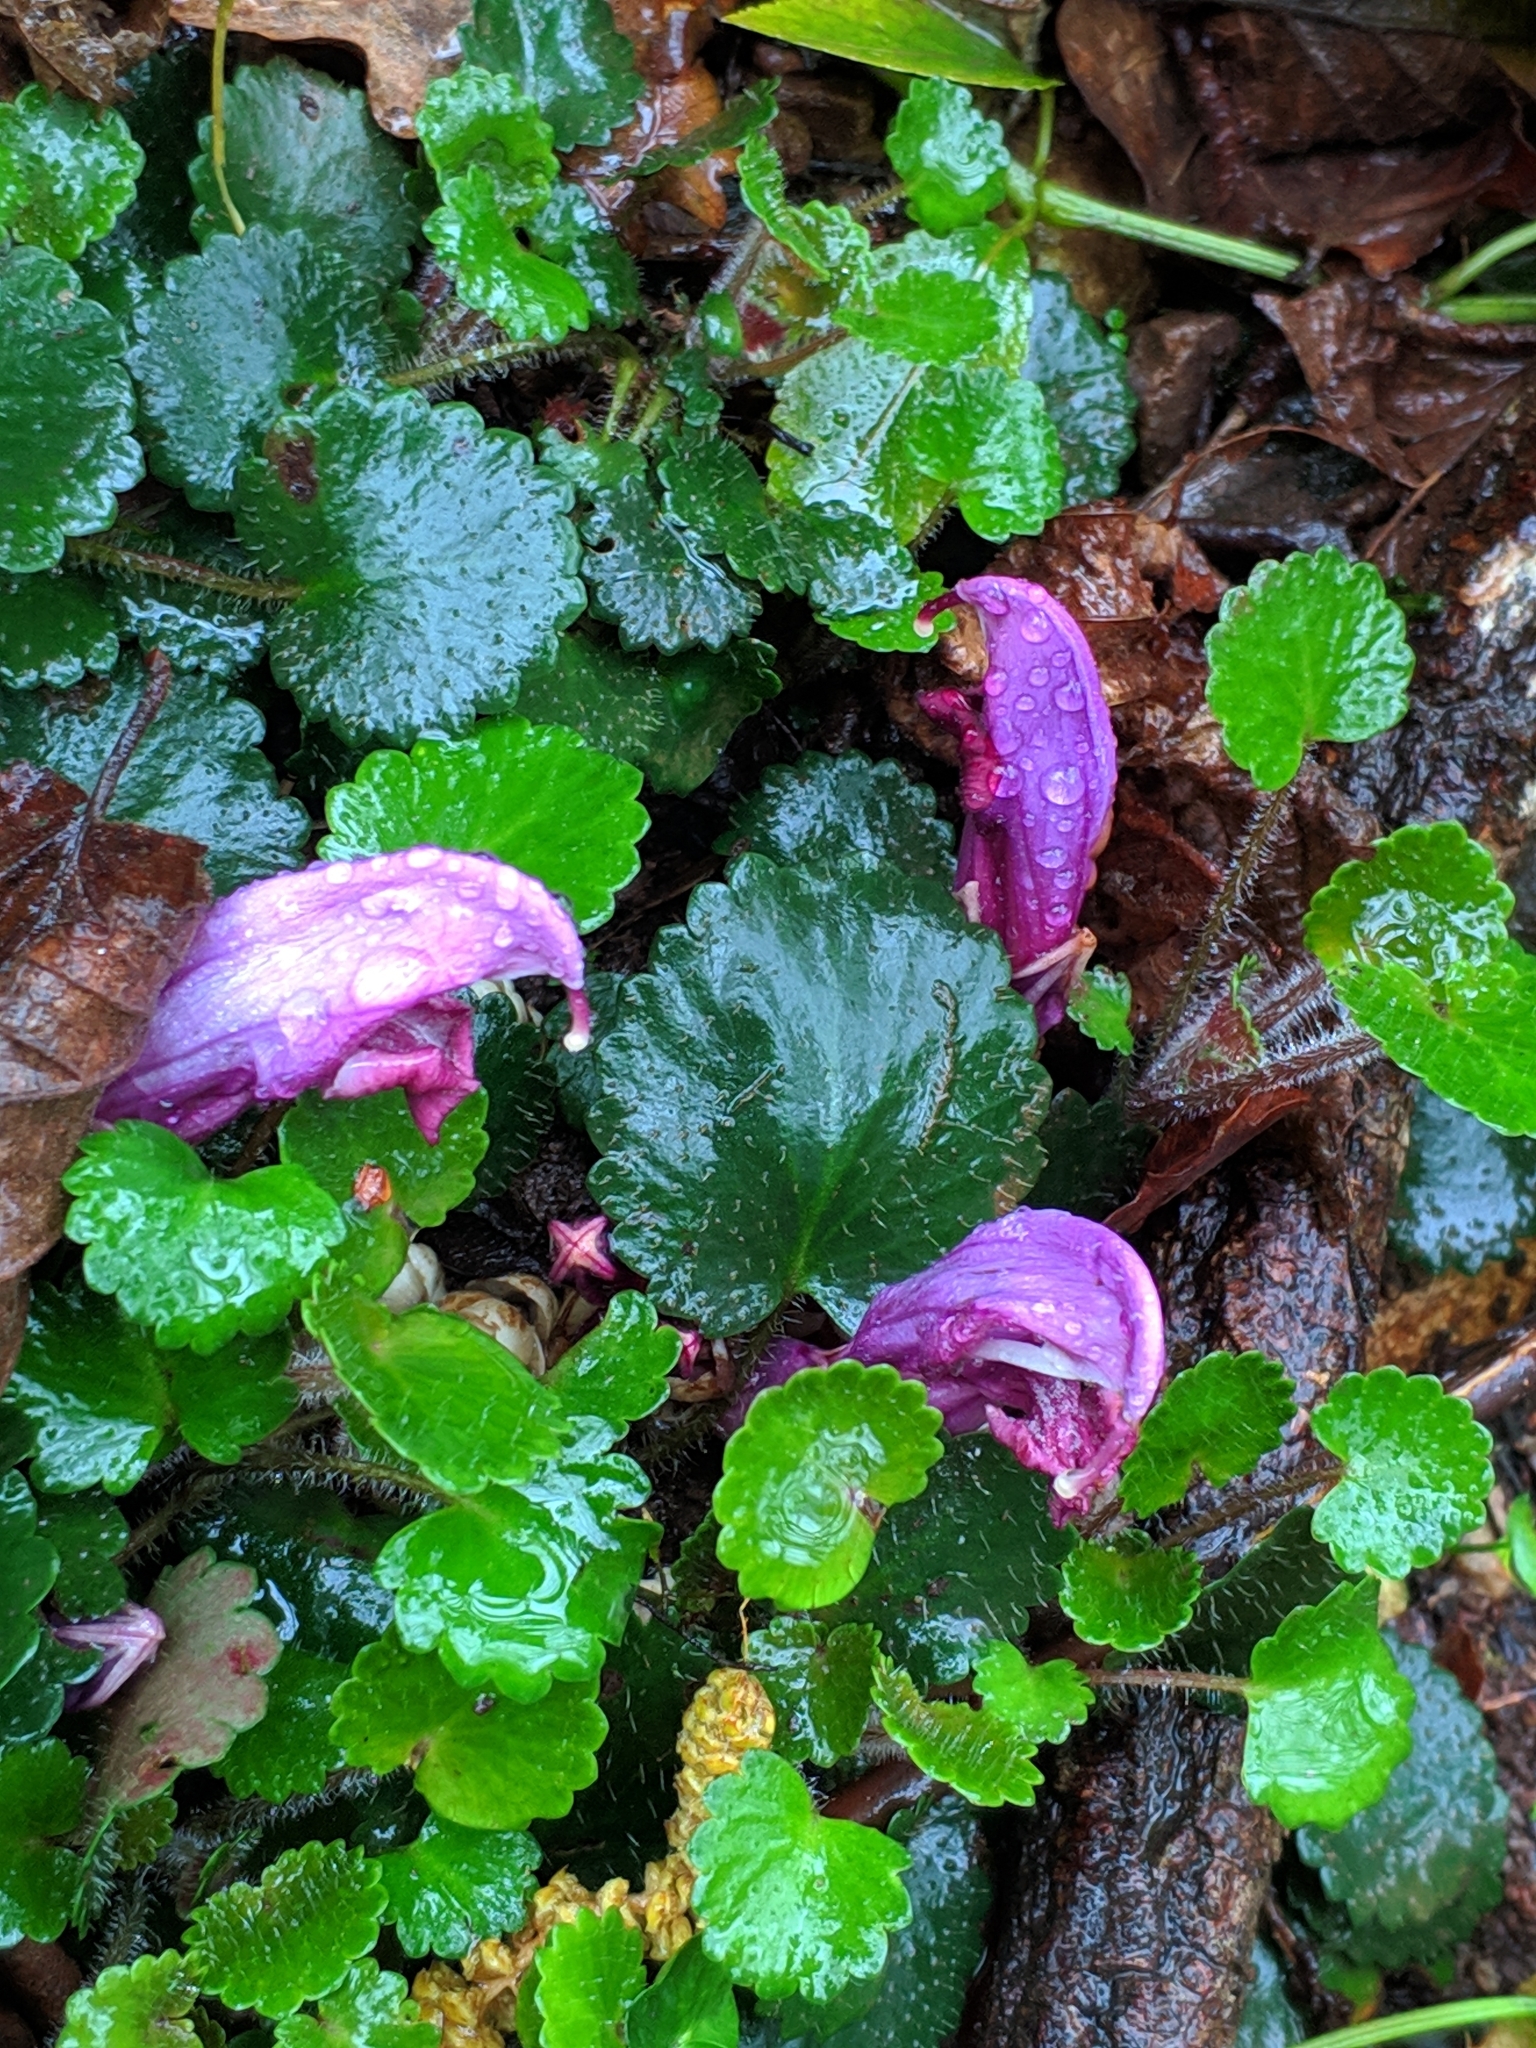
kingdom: Plantae
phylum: Tracheophyta
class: Magnoliopsida
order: Lamiales
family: Orobanchaceae
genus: Lathraea
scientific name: Lathraea clandestina
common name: Purple toothwort
